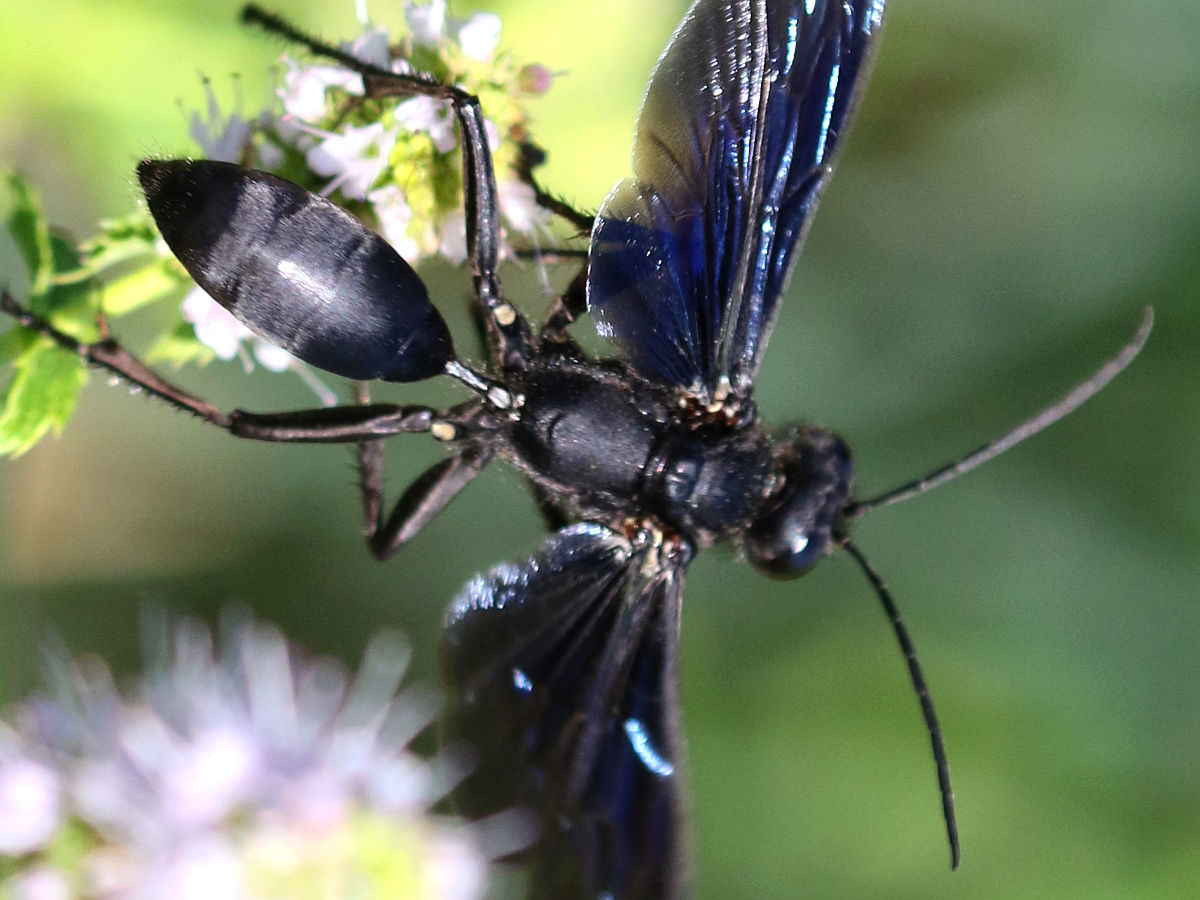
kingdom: Animalia
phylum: Arthropoda
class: Insecta
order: Hymenoptera
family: Sphecidae
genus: Sphex
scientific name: Sphex pensylvanicus
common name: Great black digger wasp
